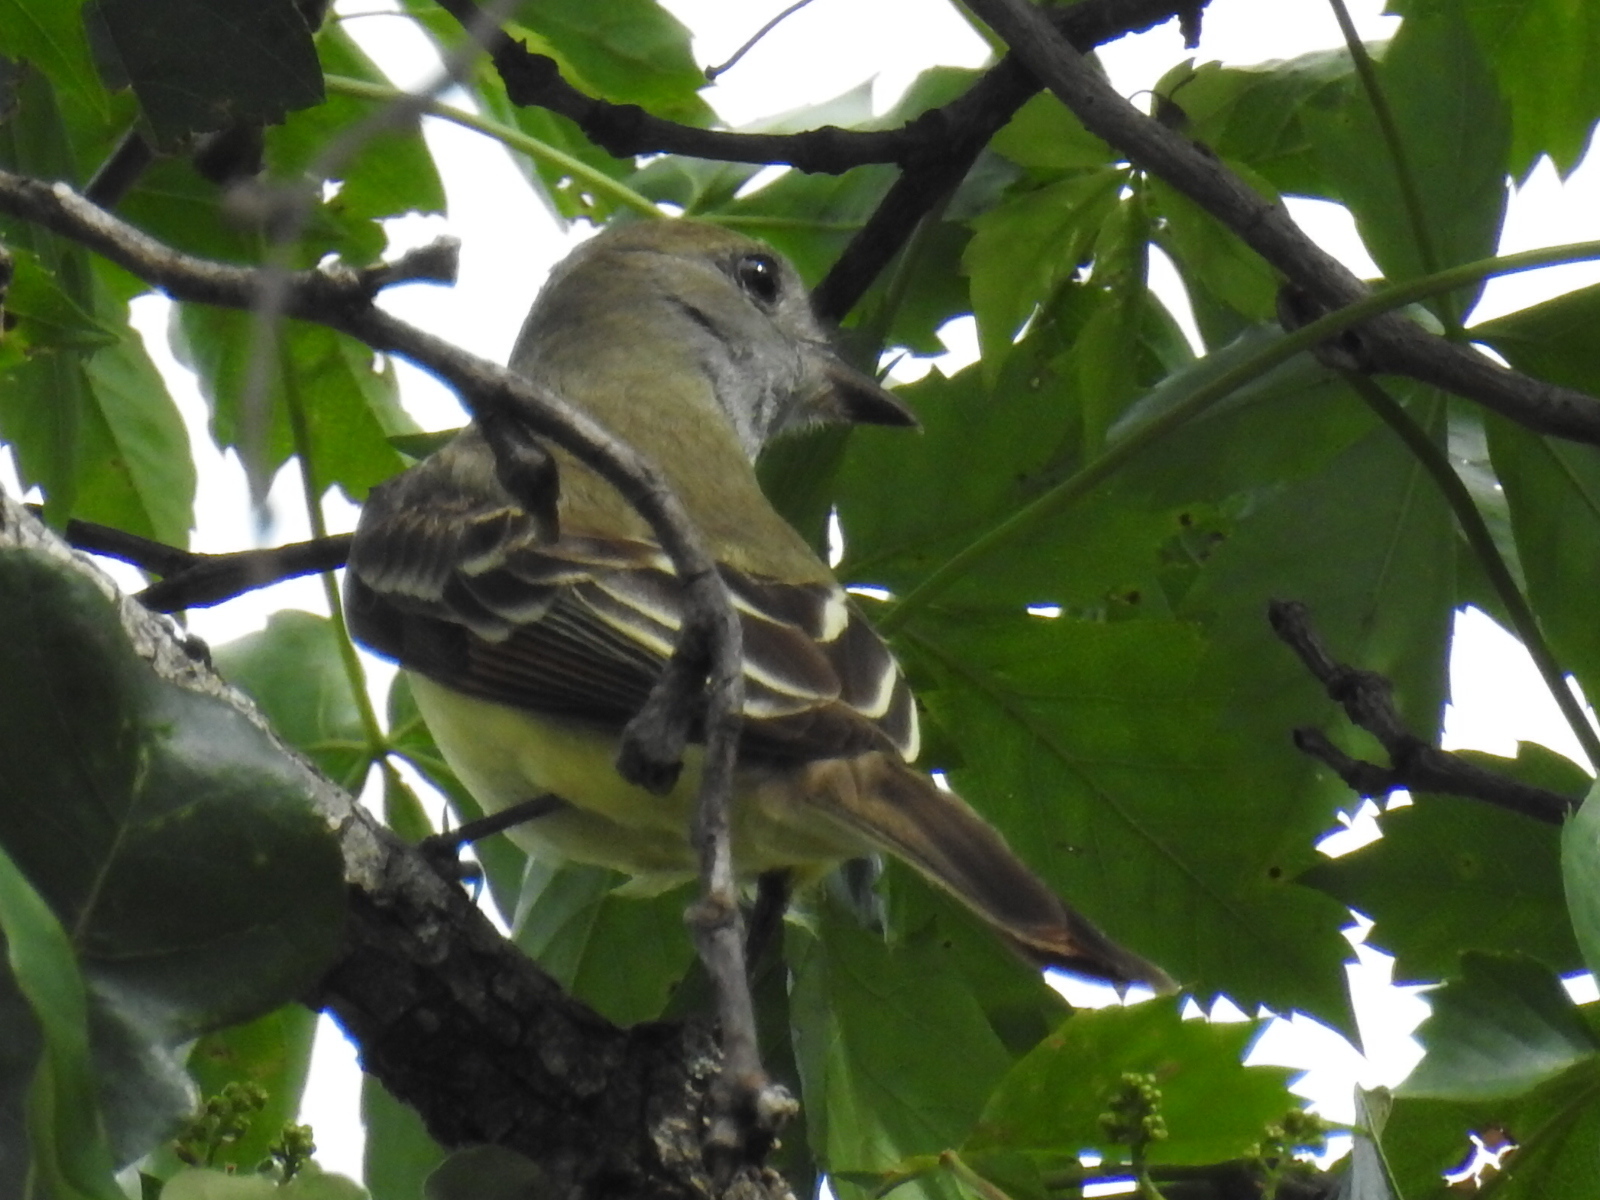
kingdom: Animalia
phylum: Chordata
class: Aves
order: Passeriformes
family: Tyrannidae
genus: Myiarchus
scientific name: Myiarchus crinitus
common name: Great crested flycatcher
